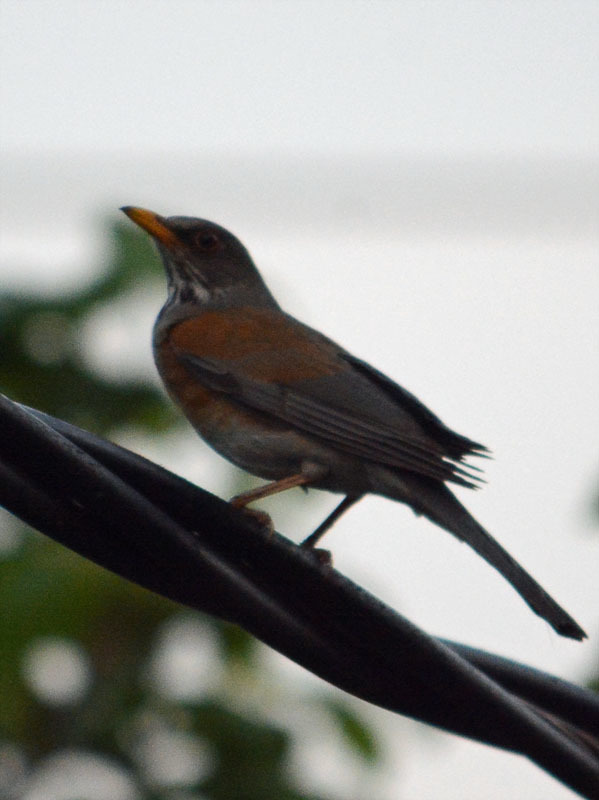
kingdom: Animalia
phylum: Chordata
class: Aves
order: Passeriformes
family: Turdidae
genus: Turdus
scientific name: Turdus rufopalliatus
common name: Rufous-backed robin
